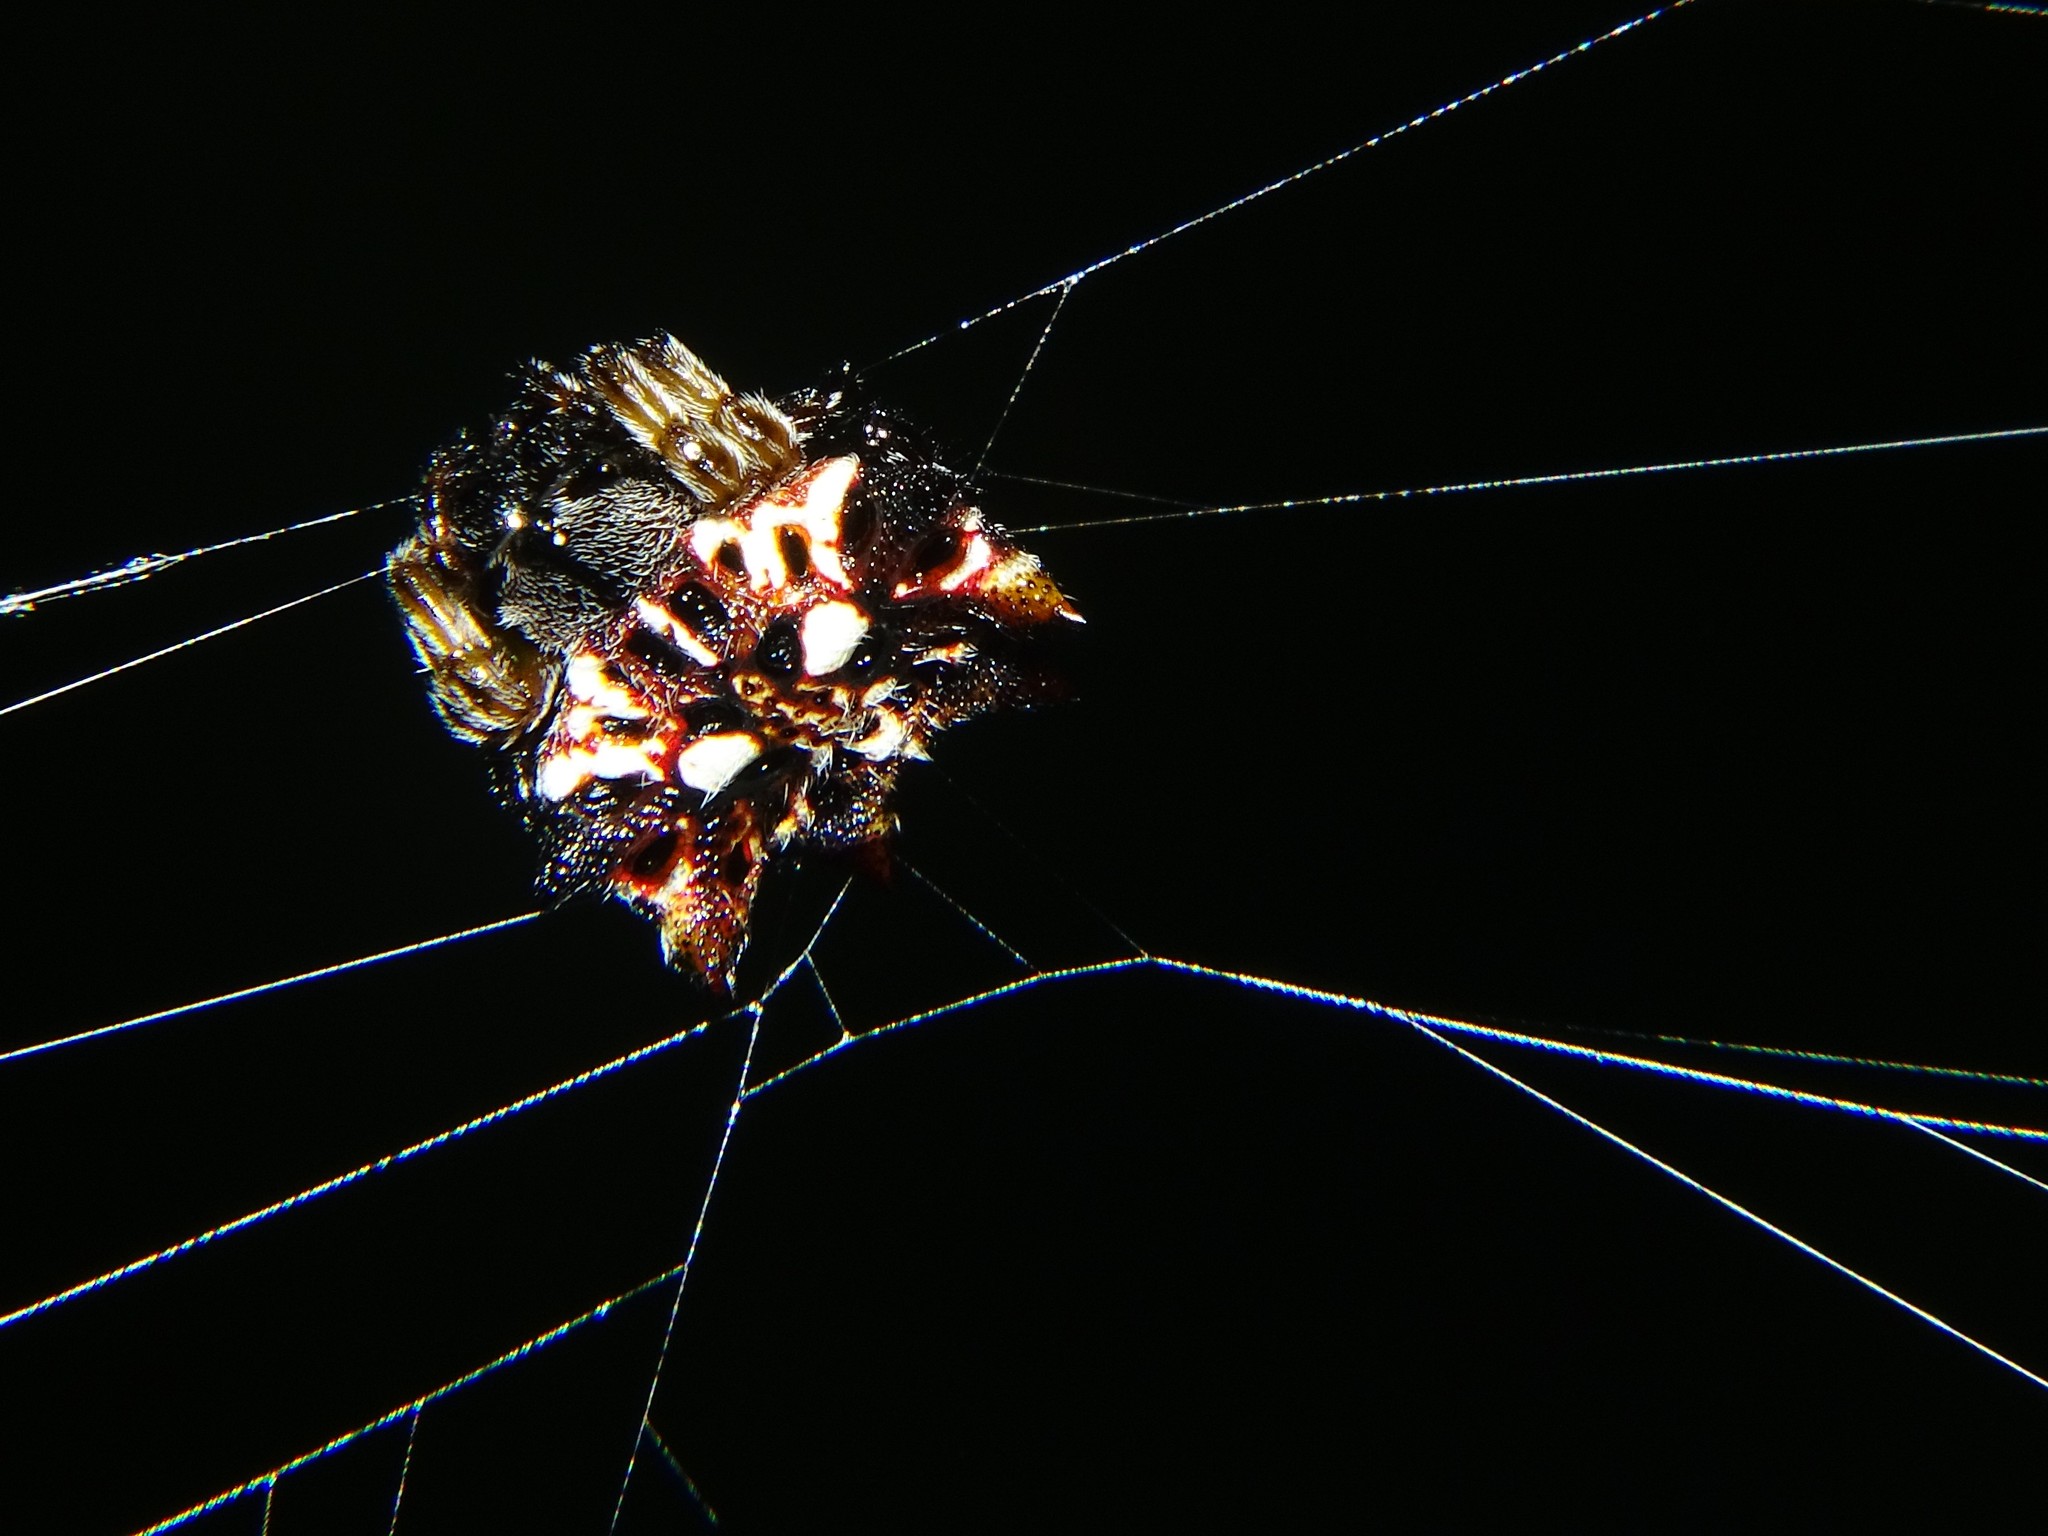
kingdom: Animalia
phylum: Arthropoda
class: Arachnida
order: Araneae
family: Araneidae
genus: Thelacantha
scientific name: Thelacantha brevispina
